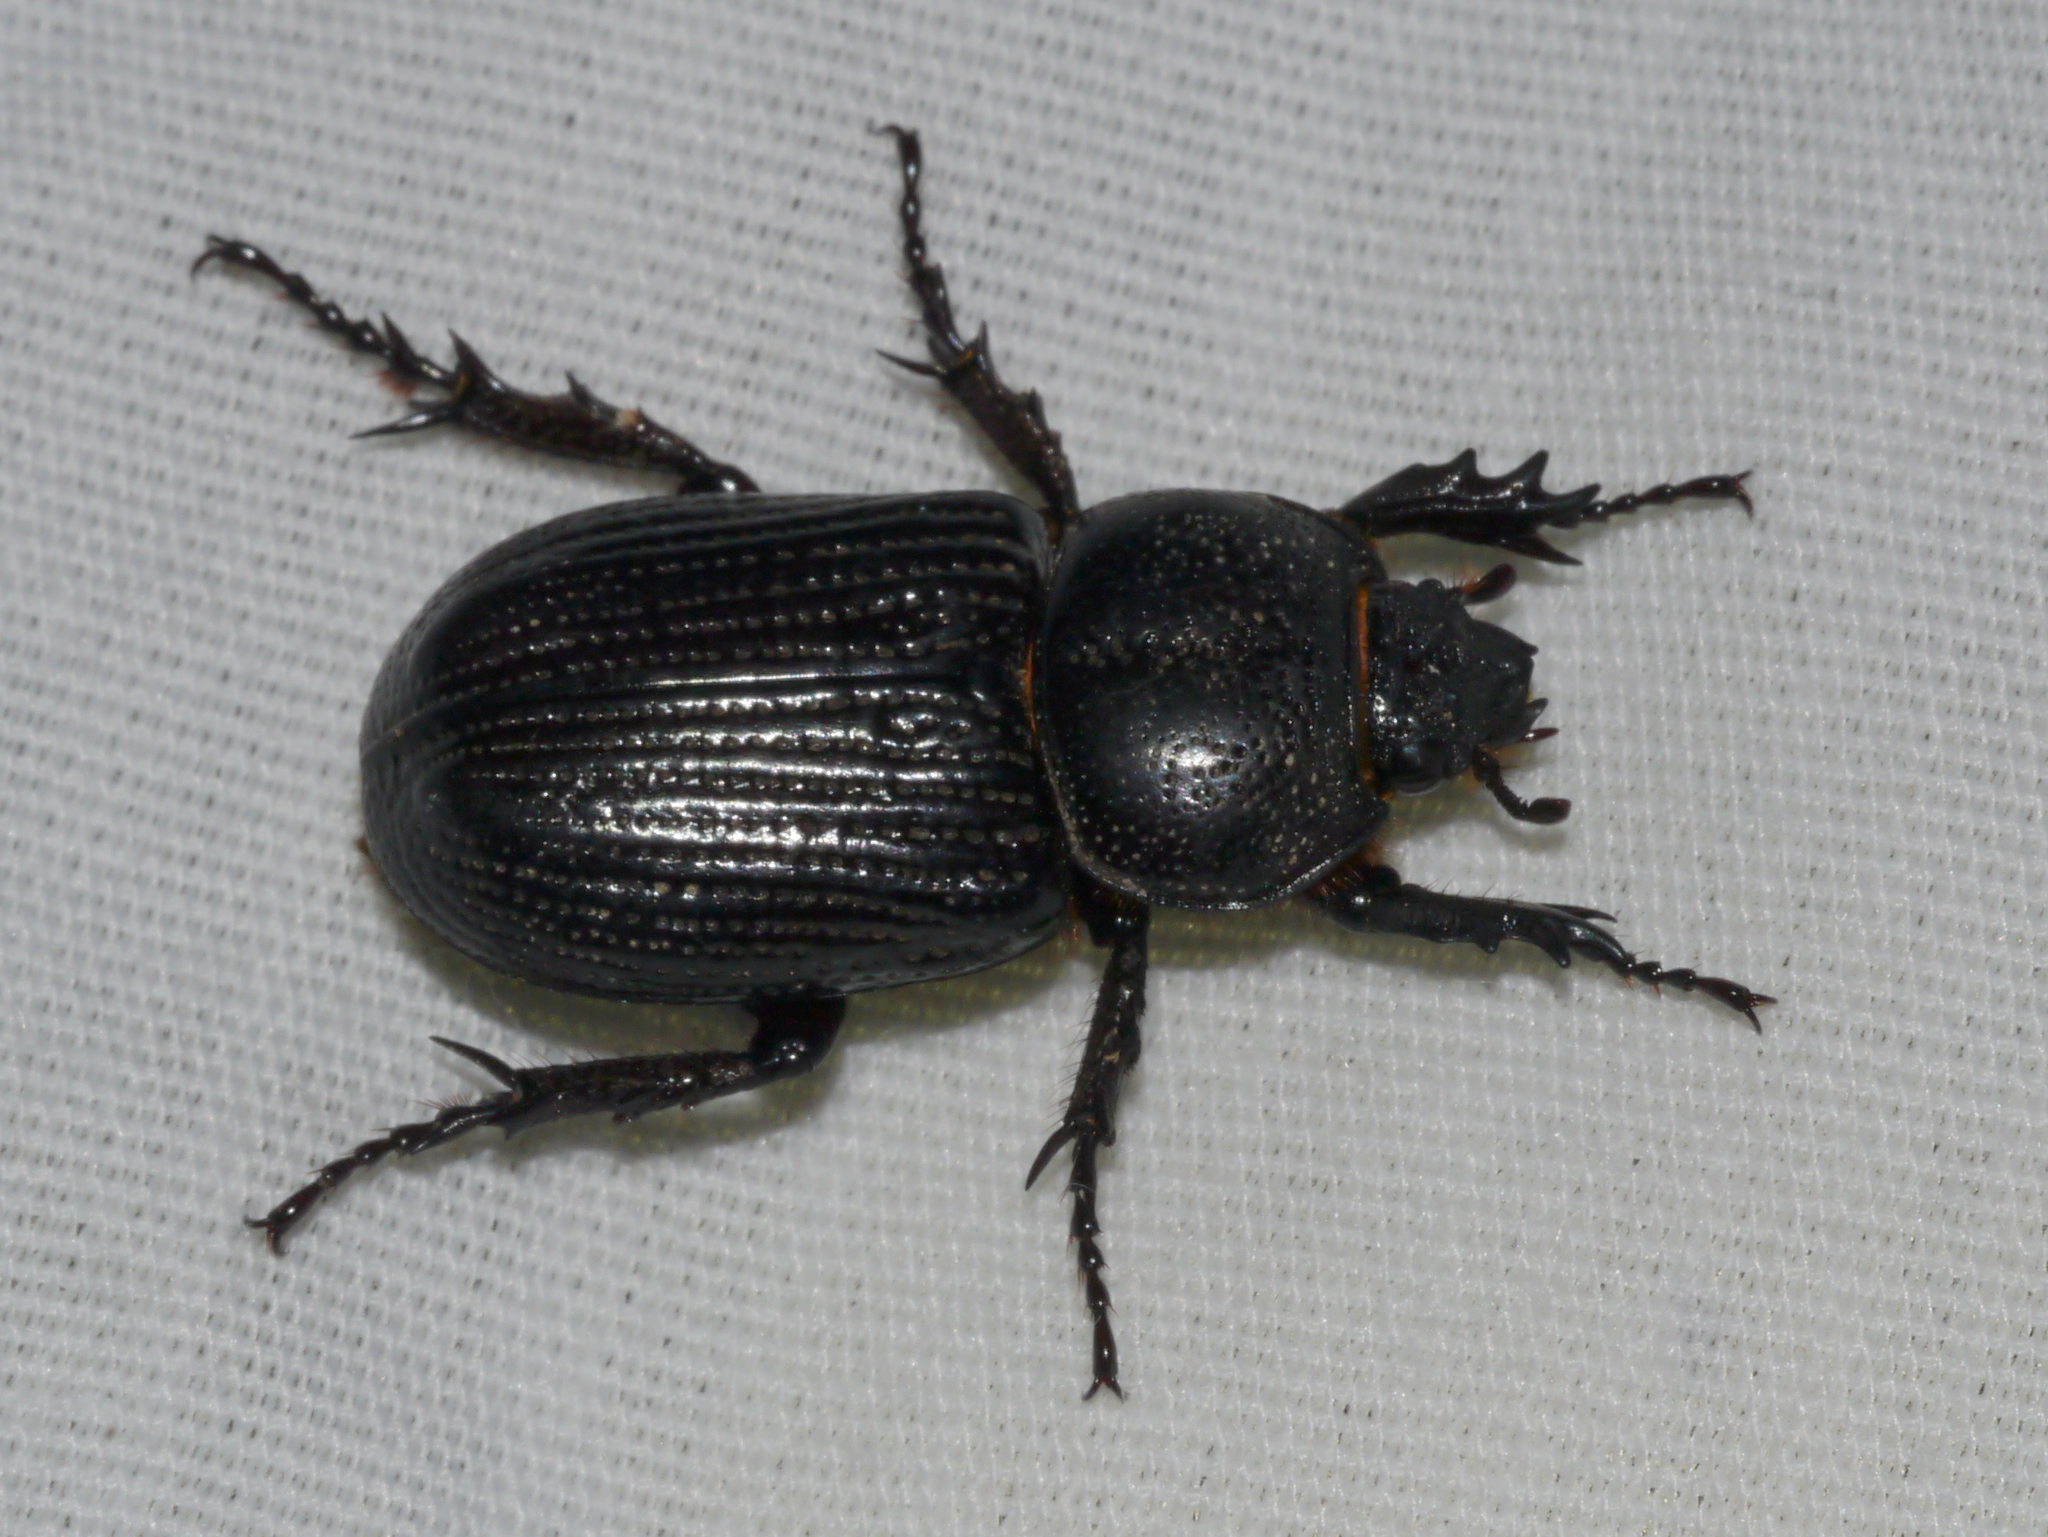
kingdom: Animalia
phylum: Arthropoda
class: Insecta
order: Coleoptera
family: Scarabaeidae
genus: Hemiphileurus
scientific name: Hemiphileurus illatus
